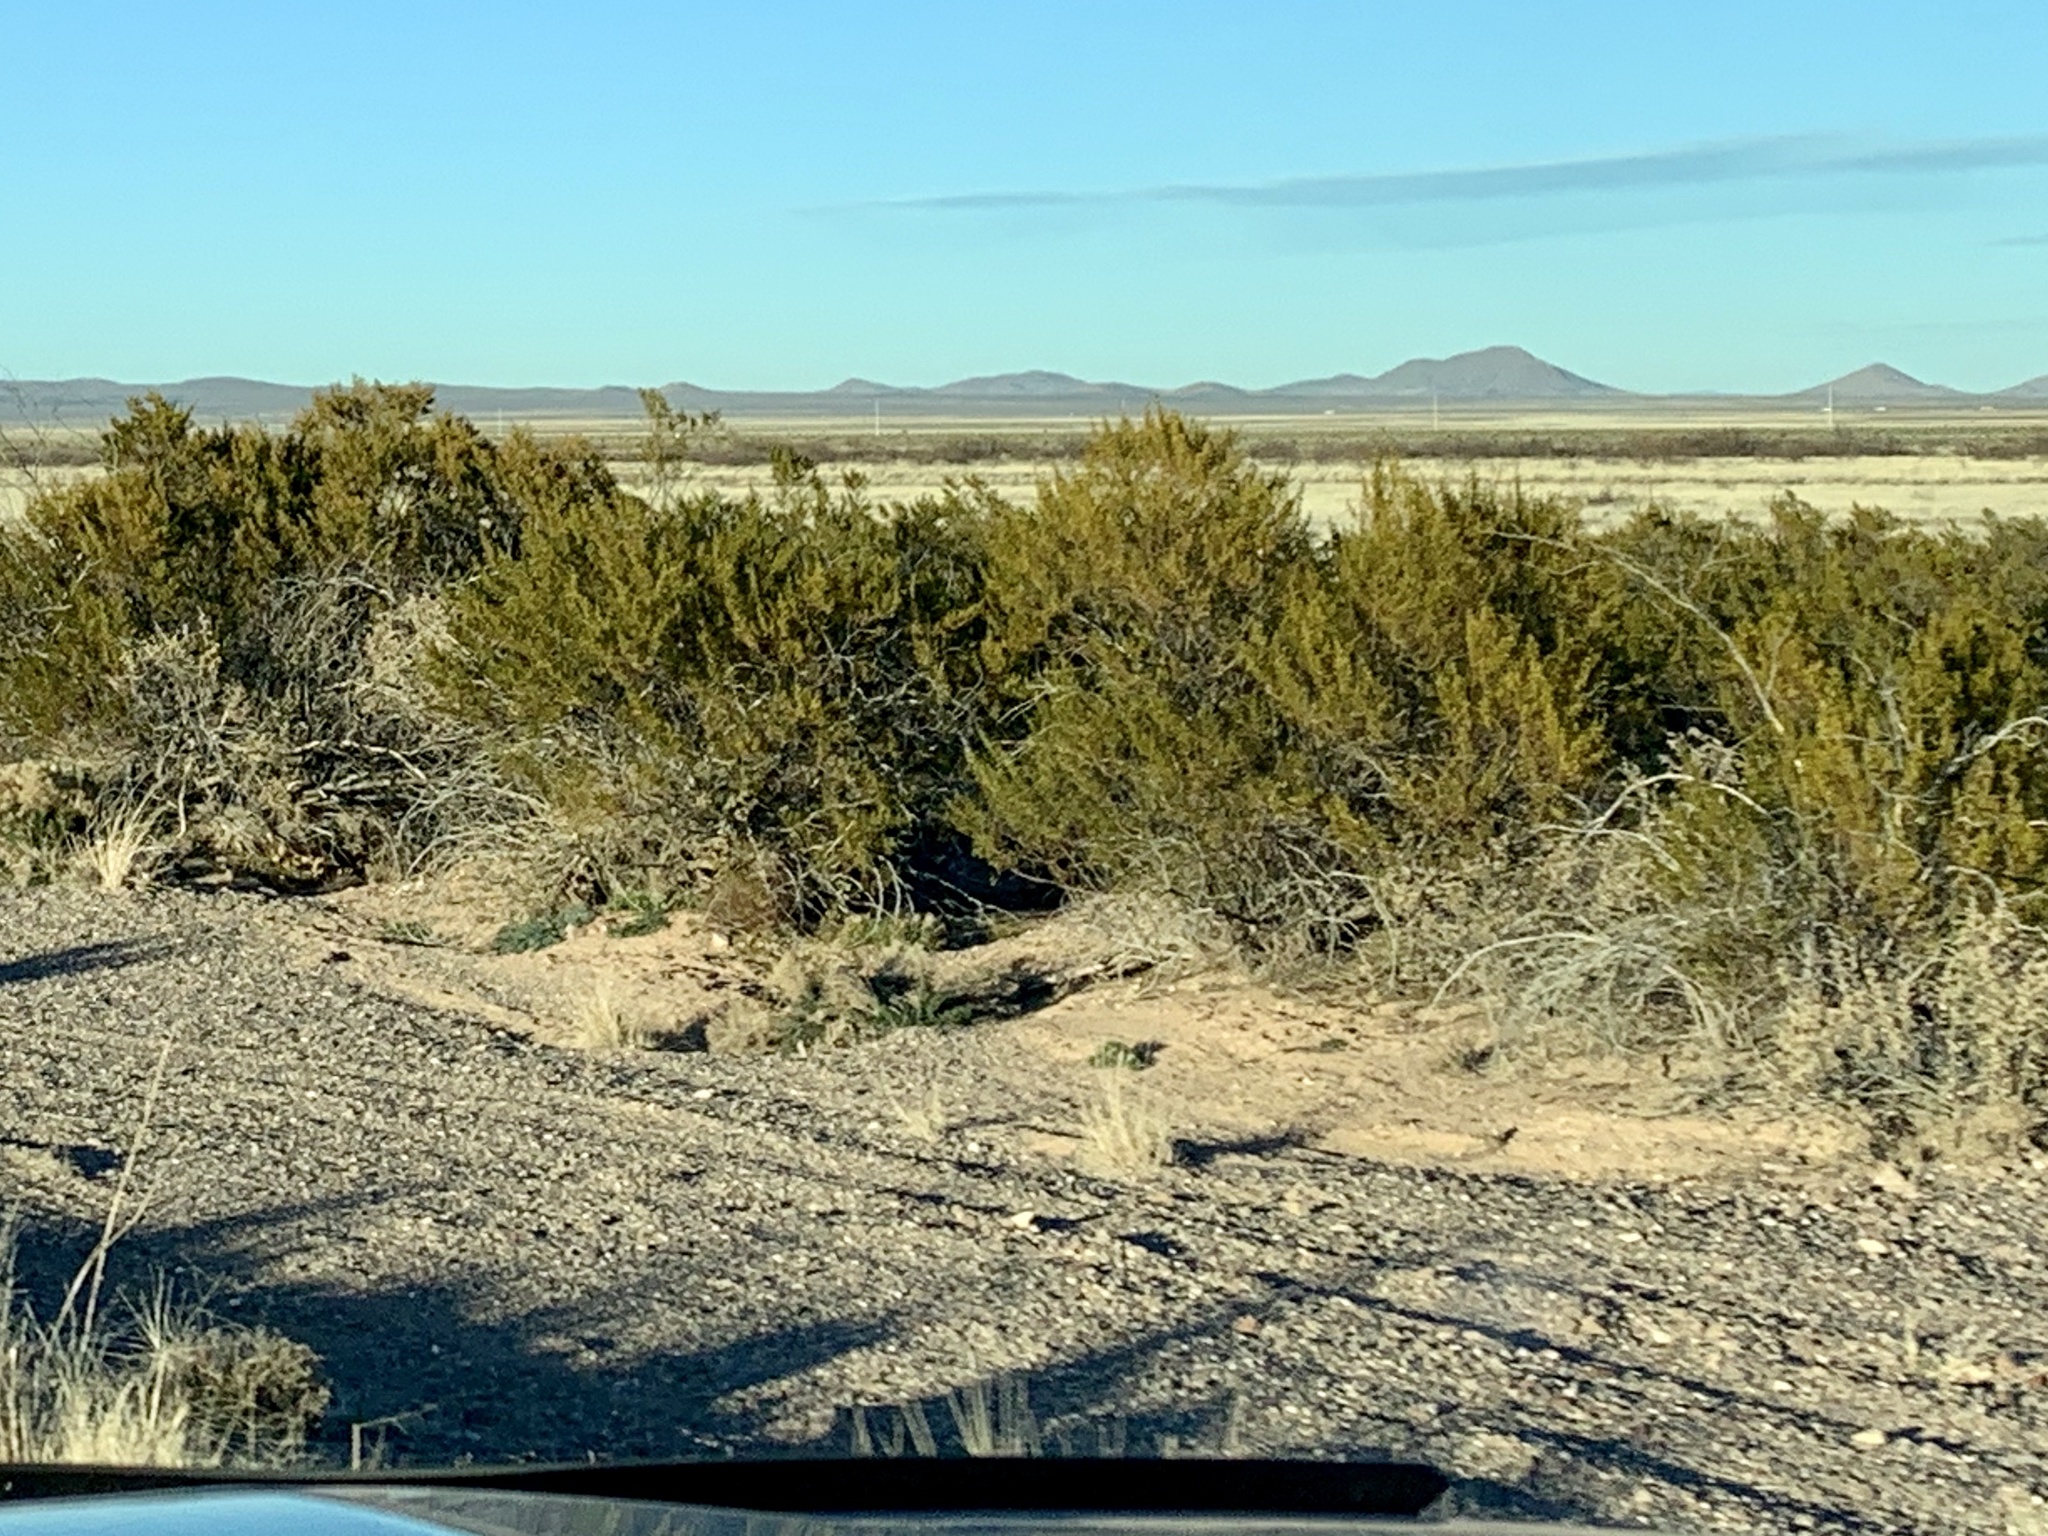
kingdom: Plantae
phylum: Tracheophyta
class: Magnoliopsida
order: Zygophyllales
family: Zygophyllaceae
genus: Larrea
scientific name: Larrea tridentata
